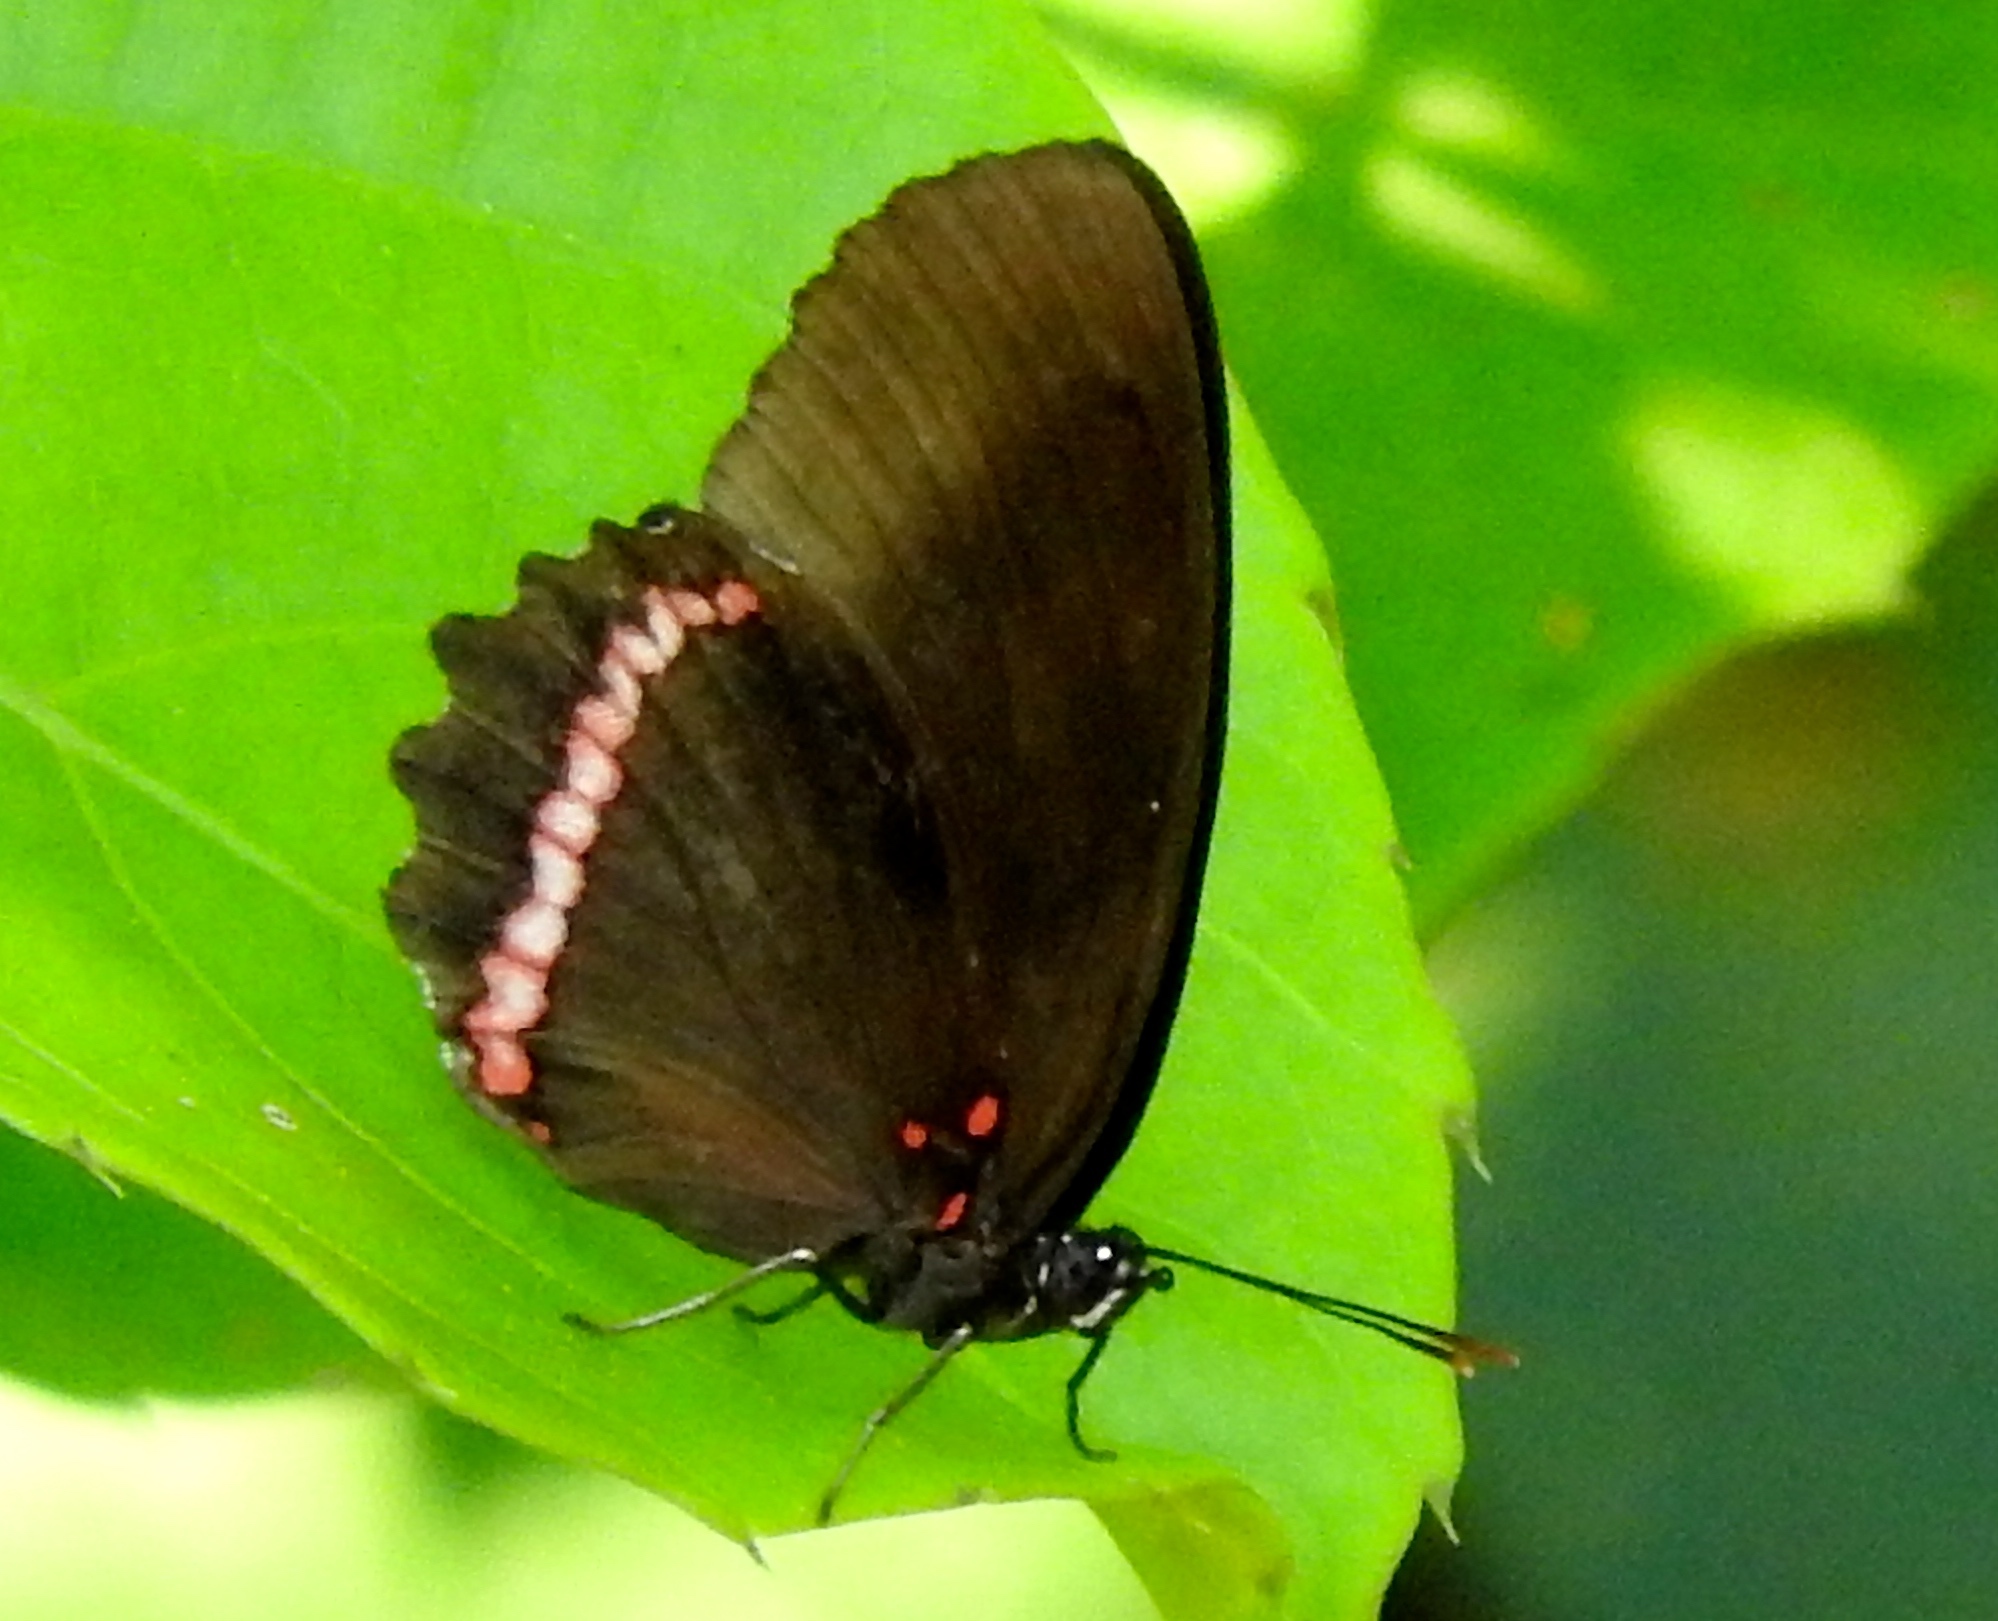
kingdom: Animalia
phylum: Arthropoda
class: Insecta
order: Lepidoptera
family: Nymphalidae
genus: Biblis
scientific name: Biblis aganisa
